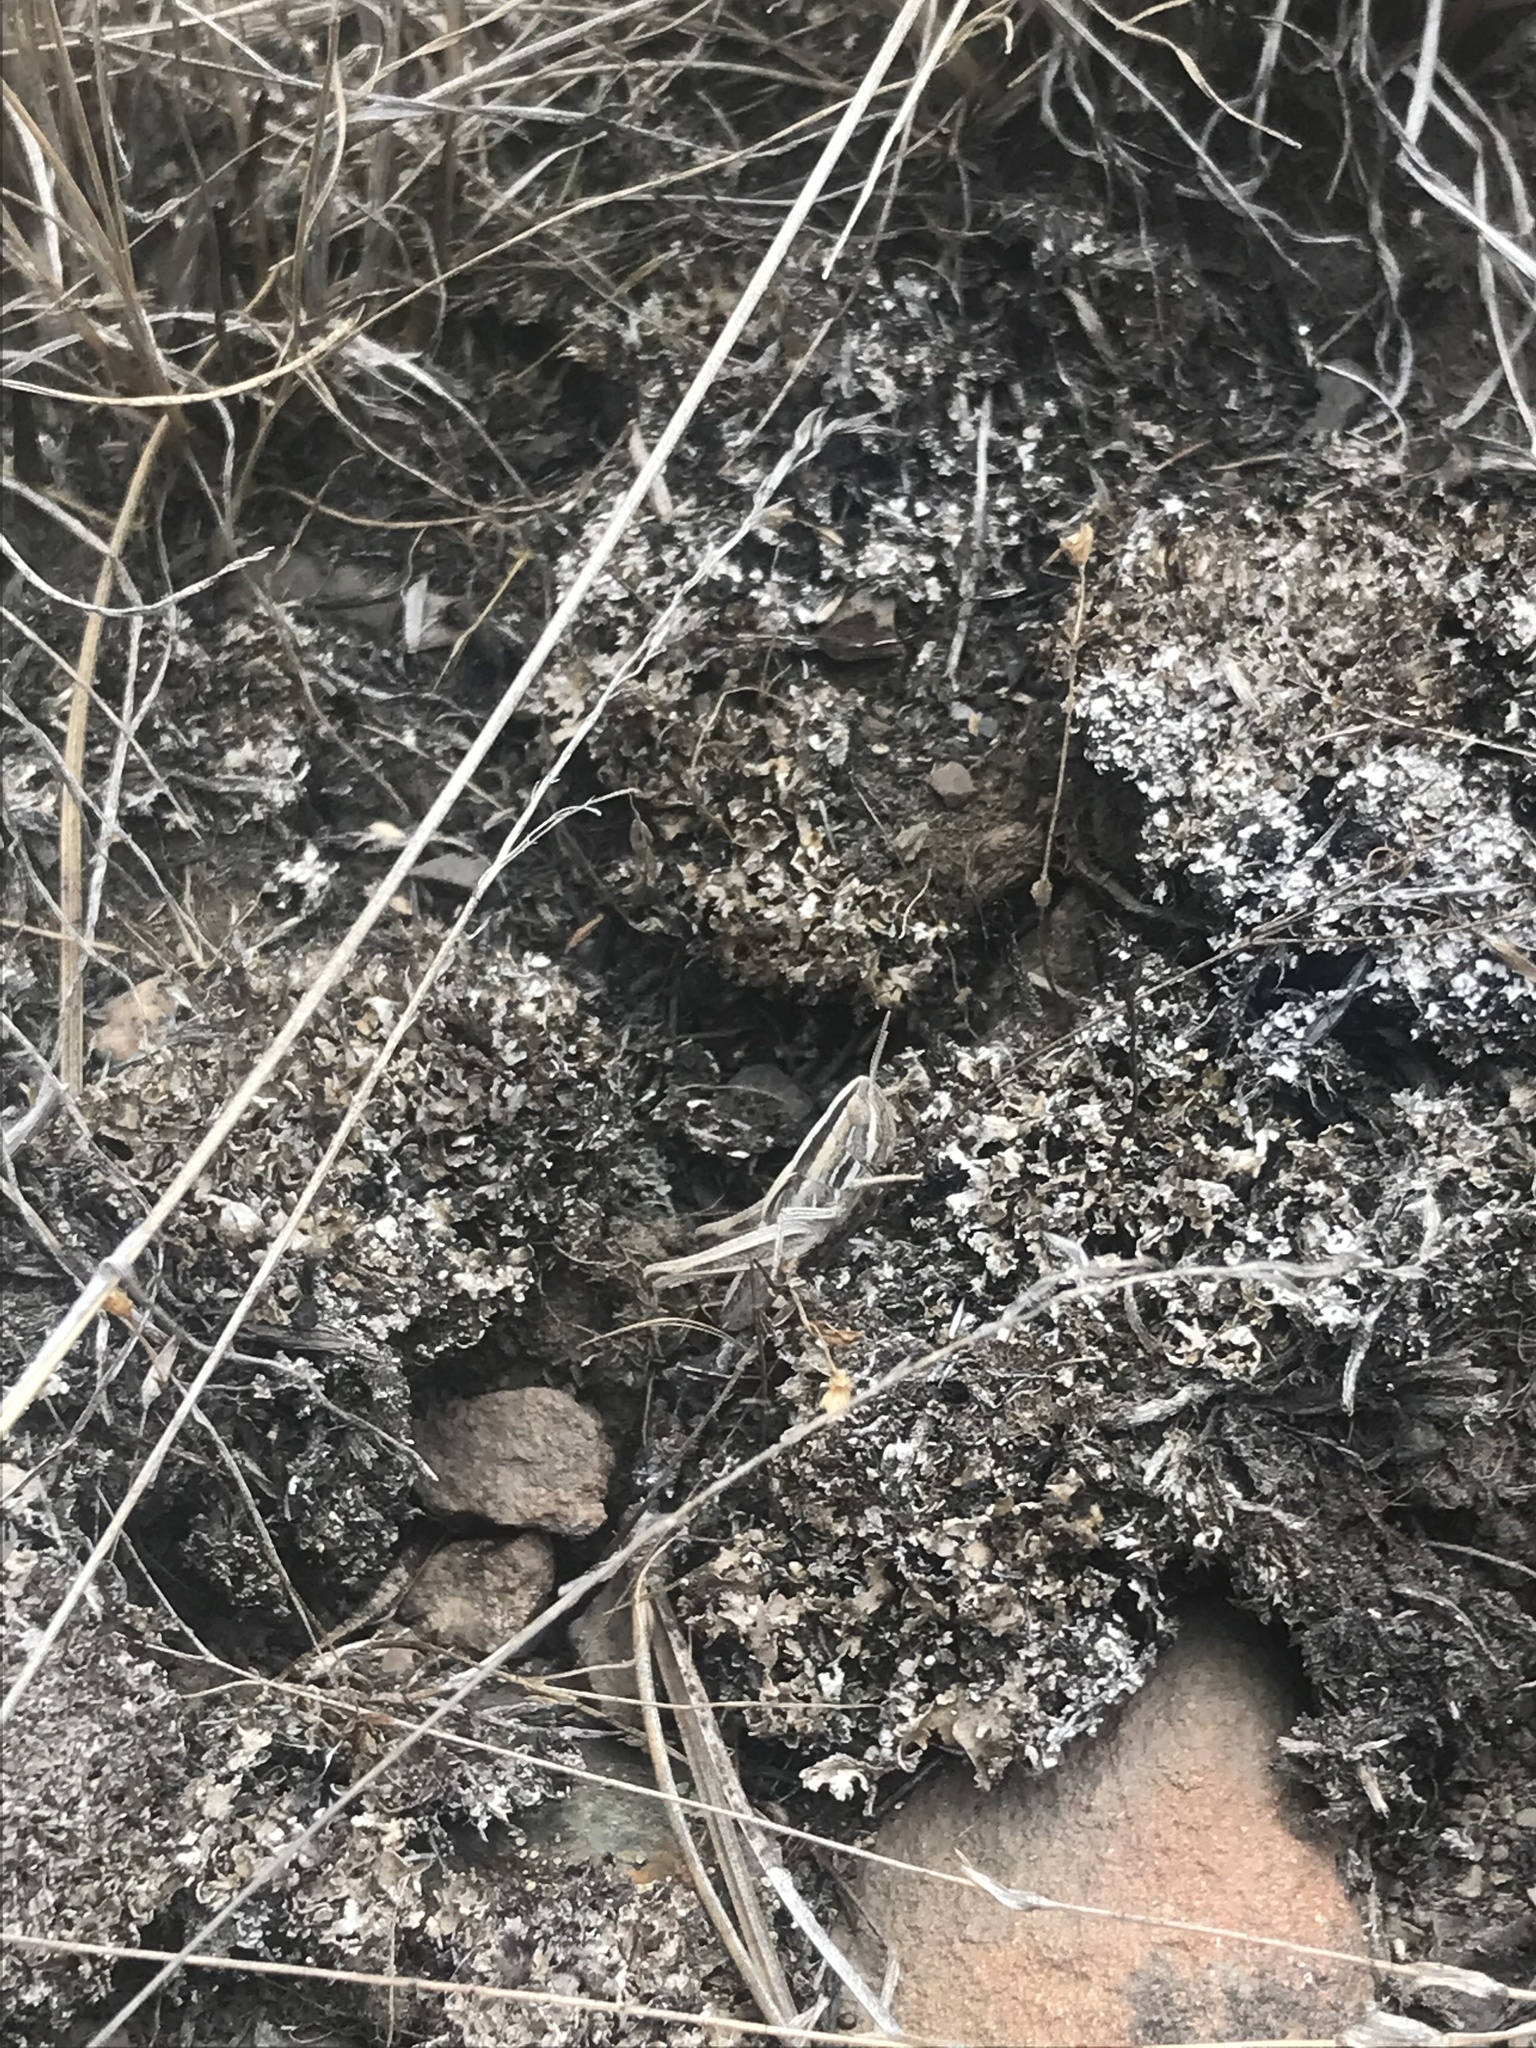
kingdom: Animalia
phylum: Arthropoda
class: Insecta
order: Orthoptera
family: Acrididae
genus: Amphitornus
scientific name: Amphitornus coloradus
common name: Striped grasshopper
